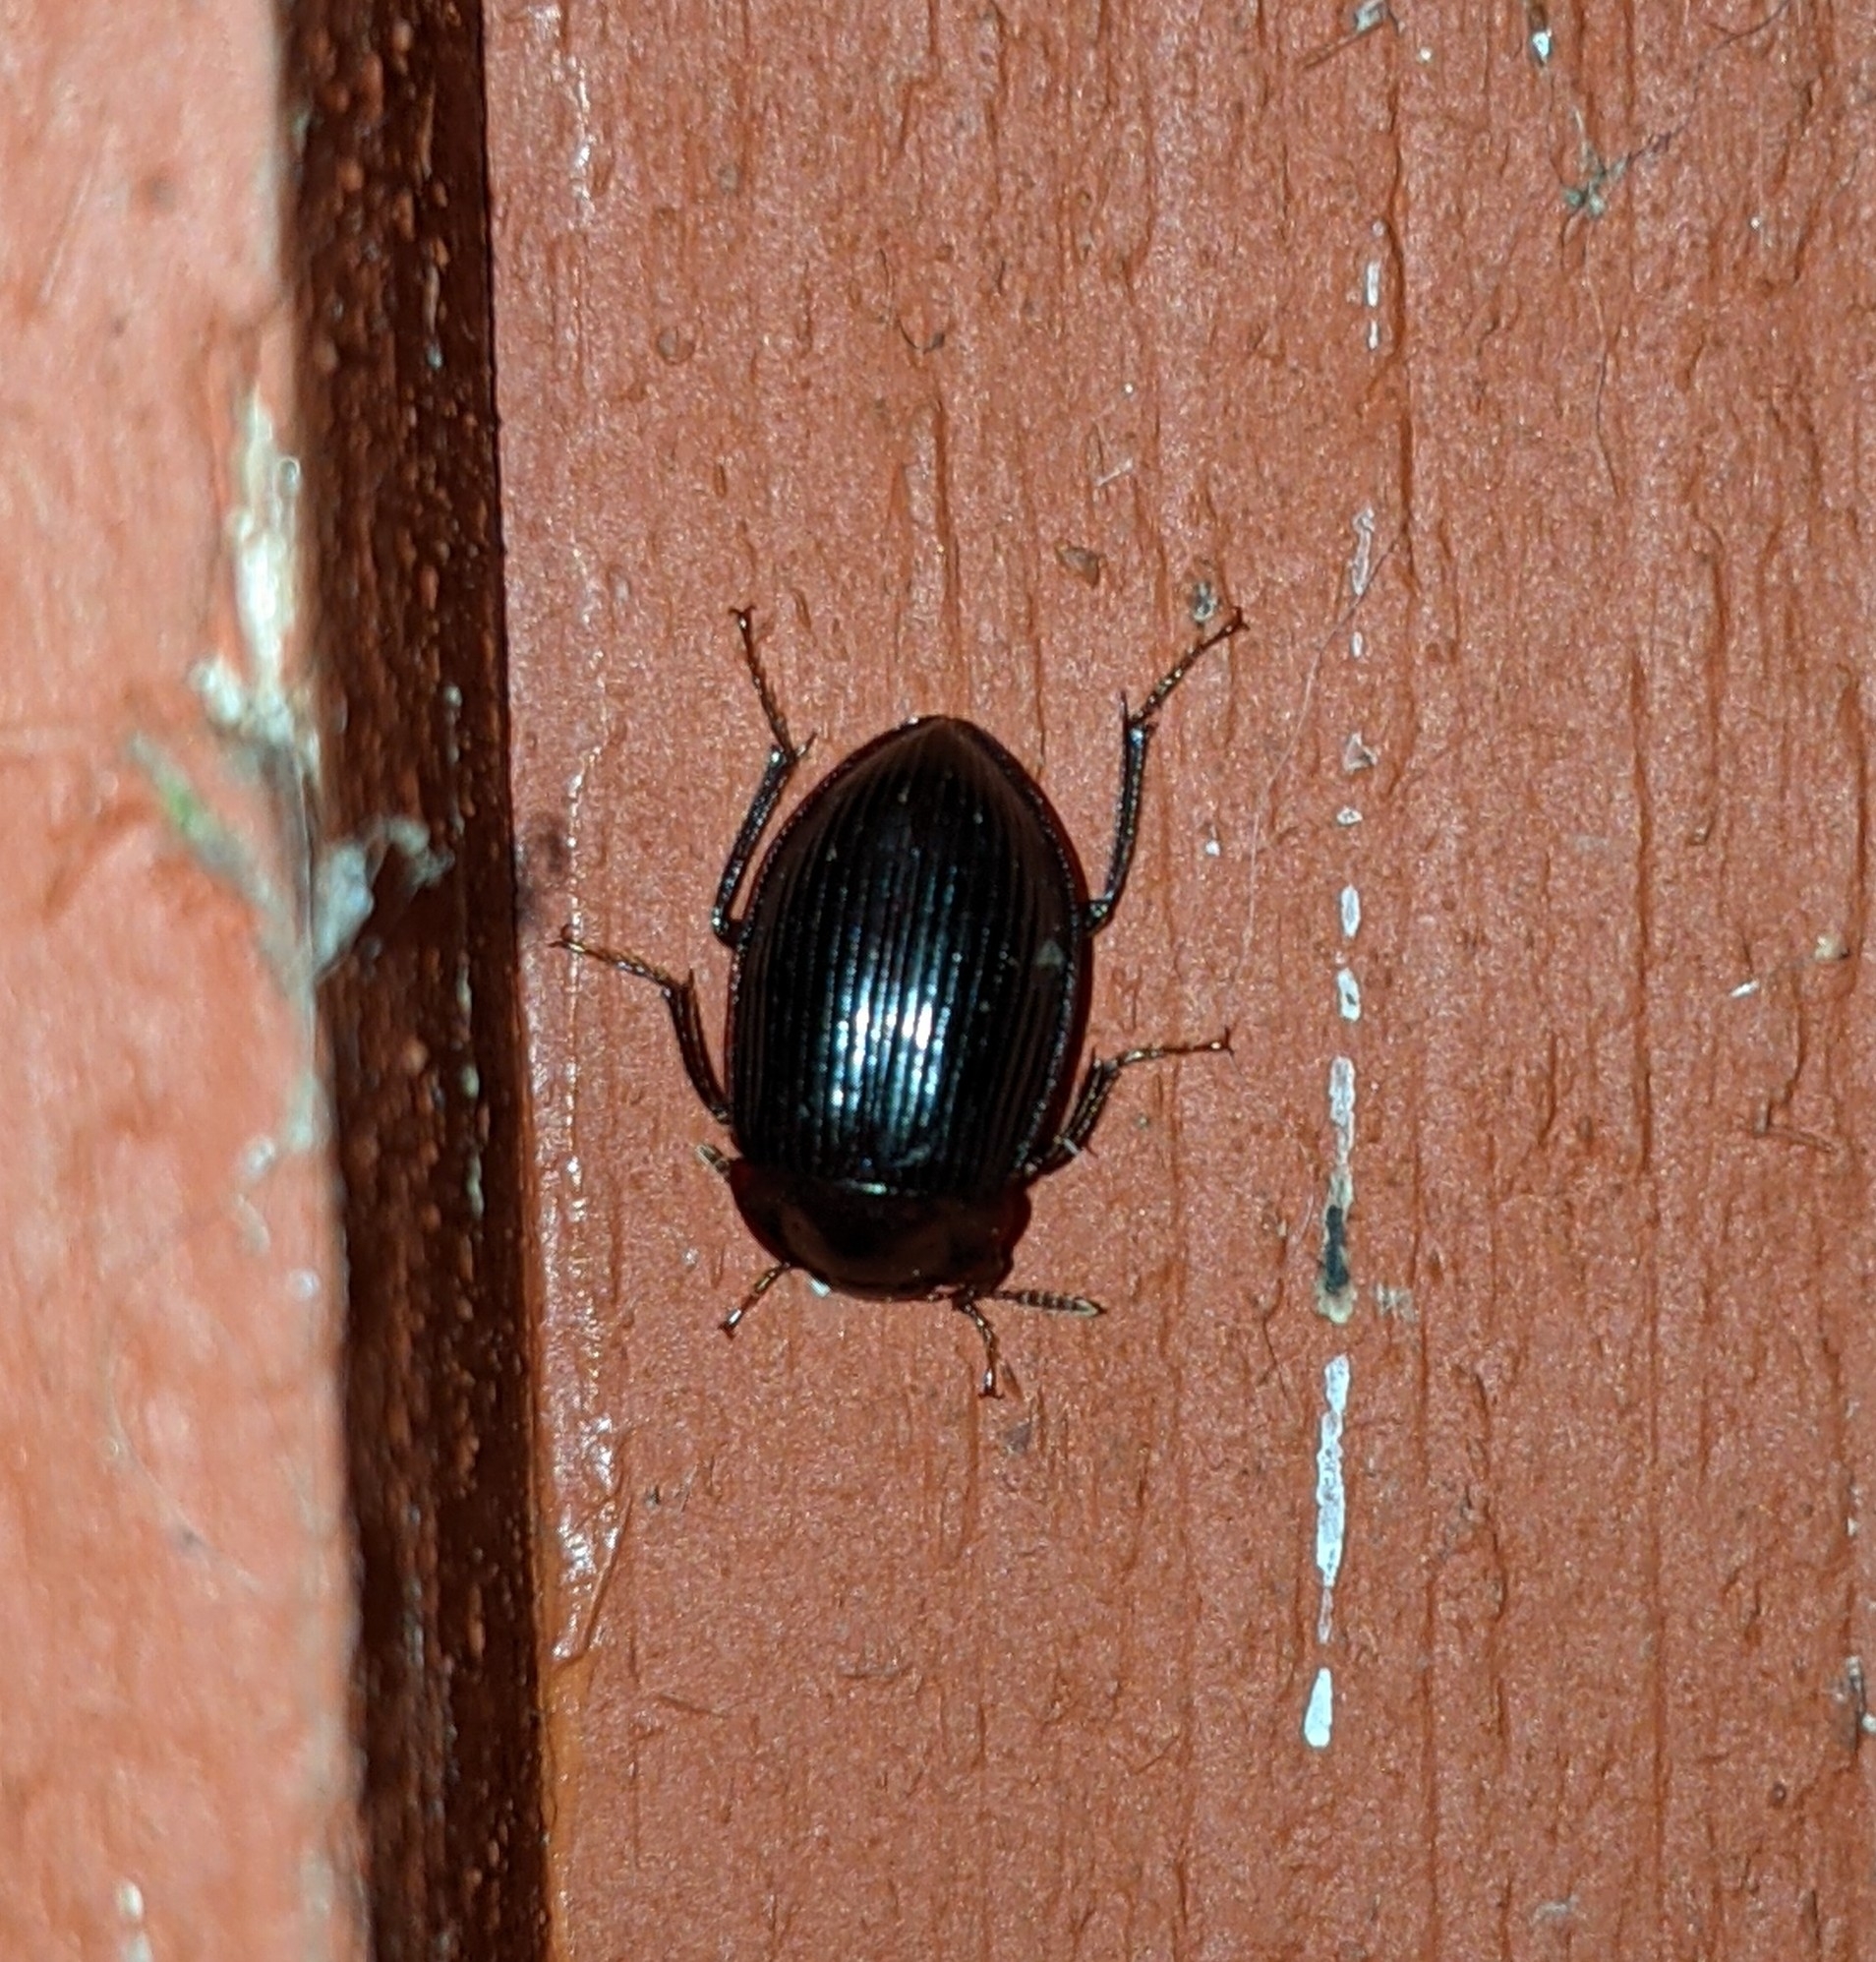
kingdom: Animalia
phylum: Arthropoda
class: Insecta
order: Coleoptera
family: Agyrtidae
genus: Necrophilus
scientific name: Necrophilus hydrophiloides
